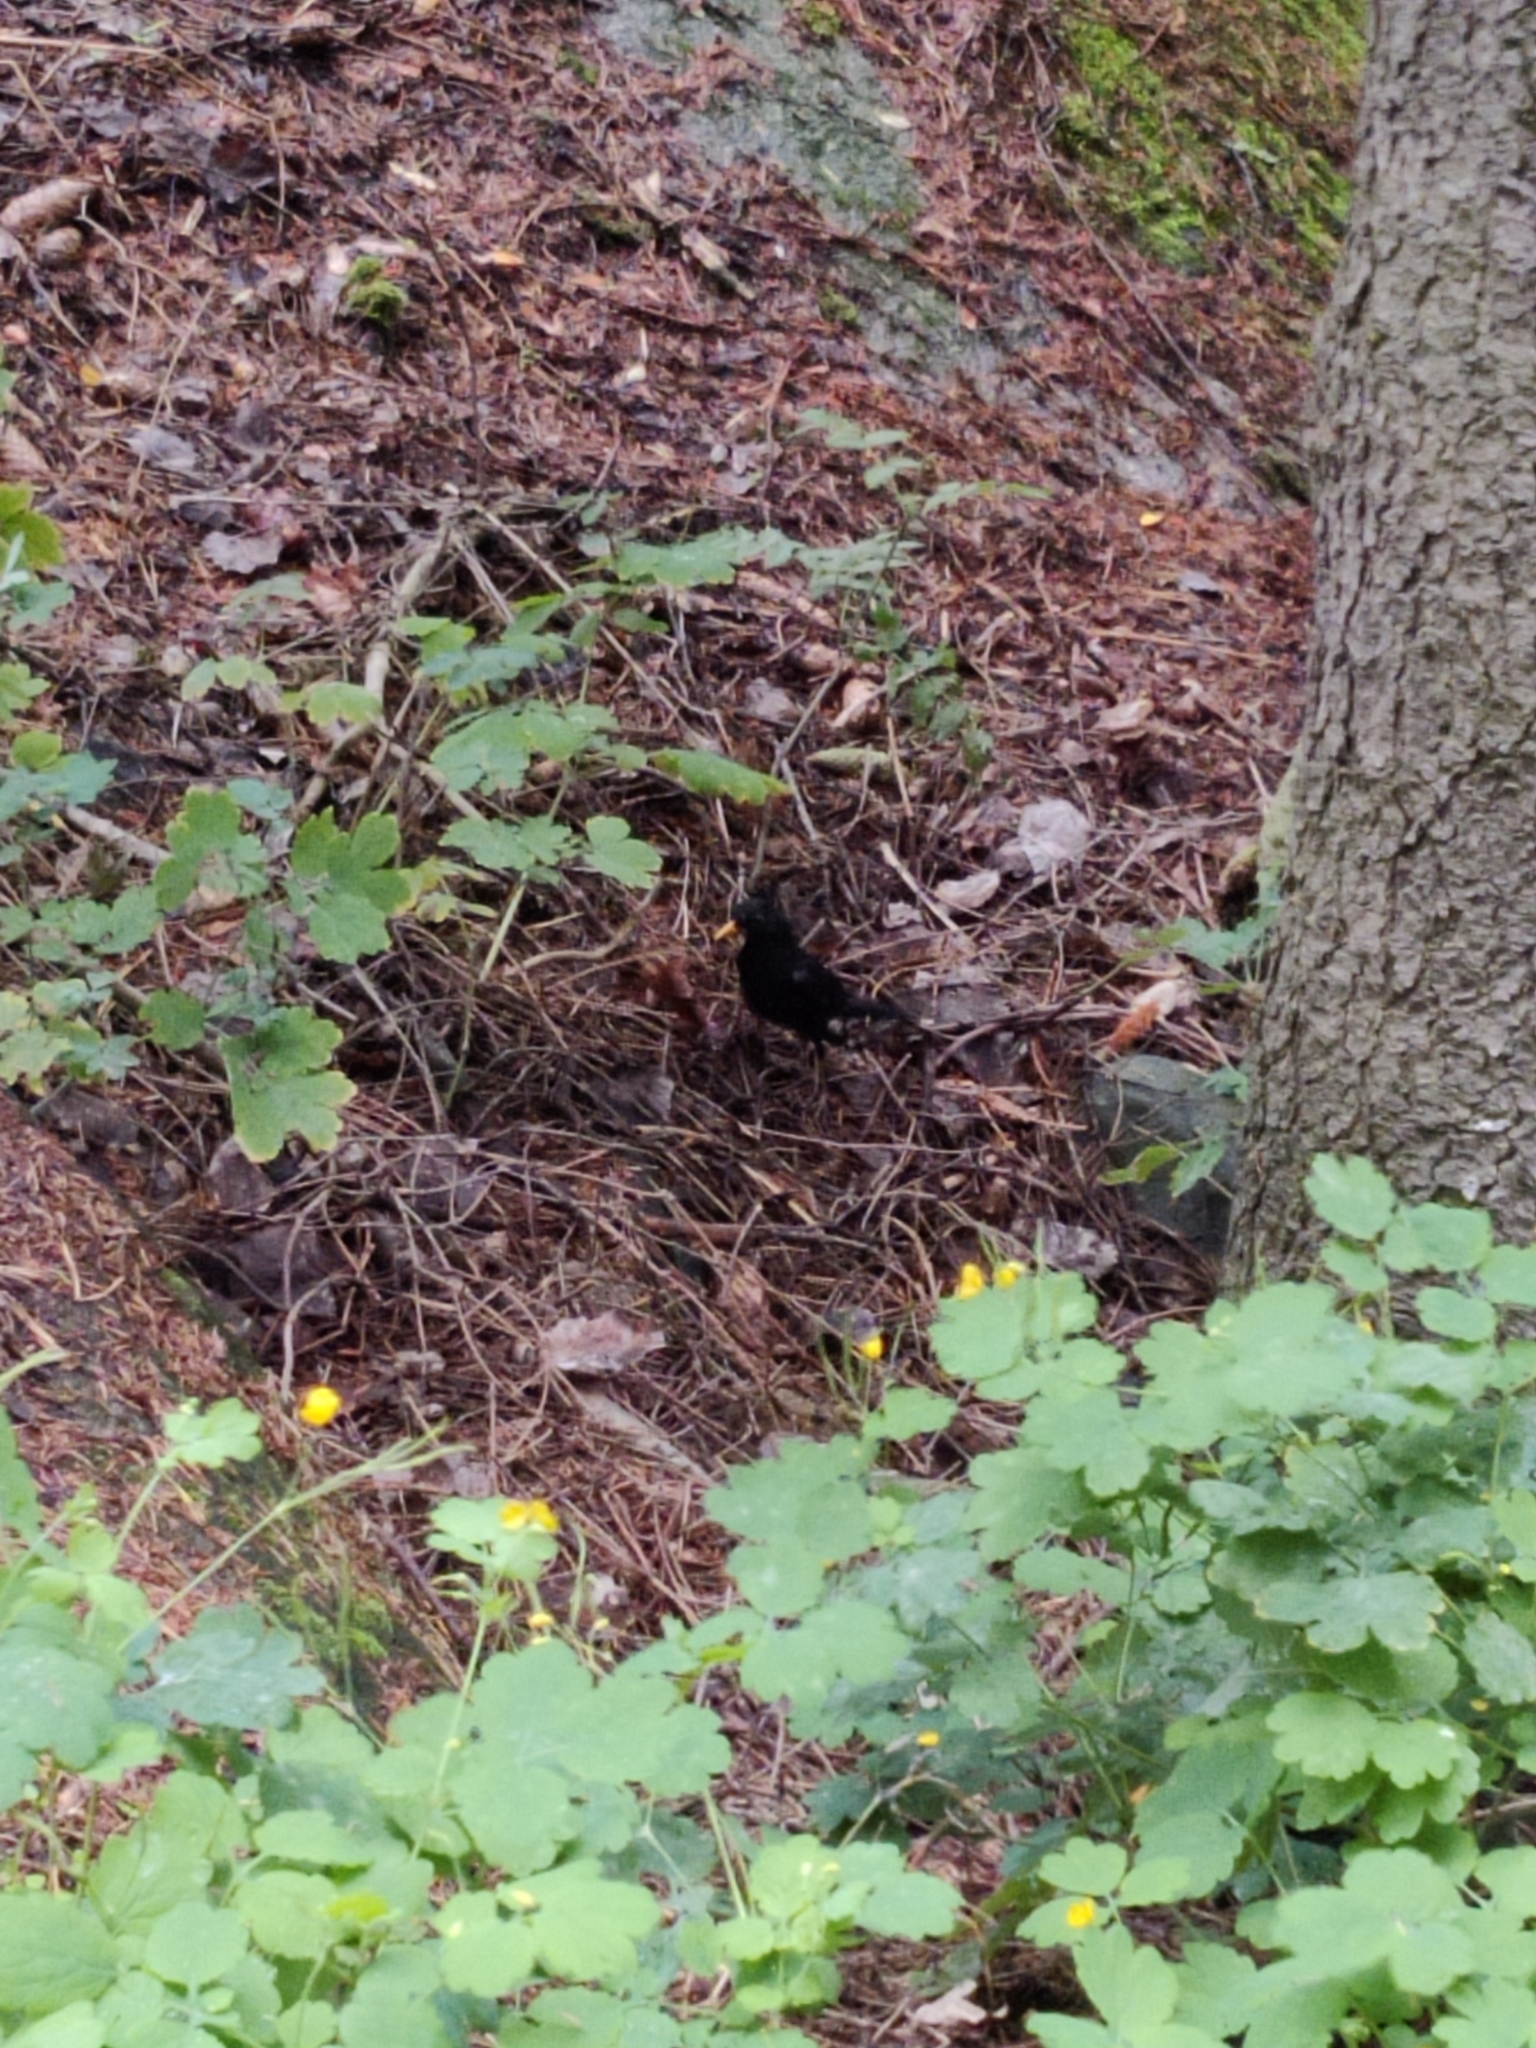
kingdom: Animalia
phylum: Chordata
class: Aves
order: Passeriformes
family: Turdidae
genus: Turdus
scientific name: Turdus merula
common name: Common blackbird
